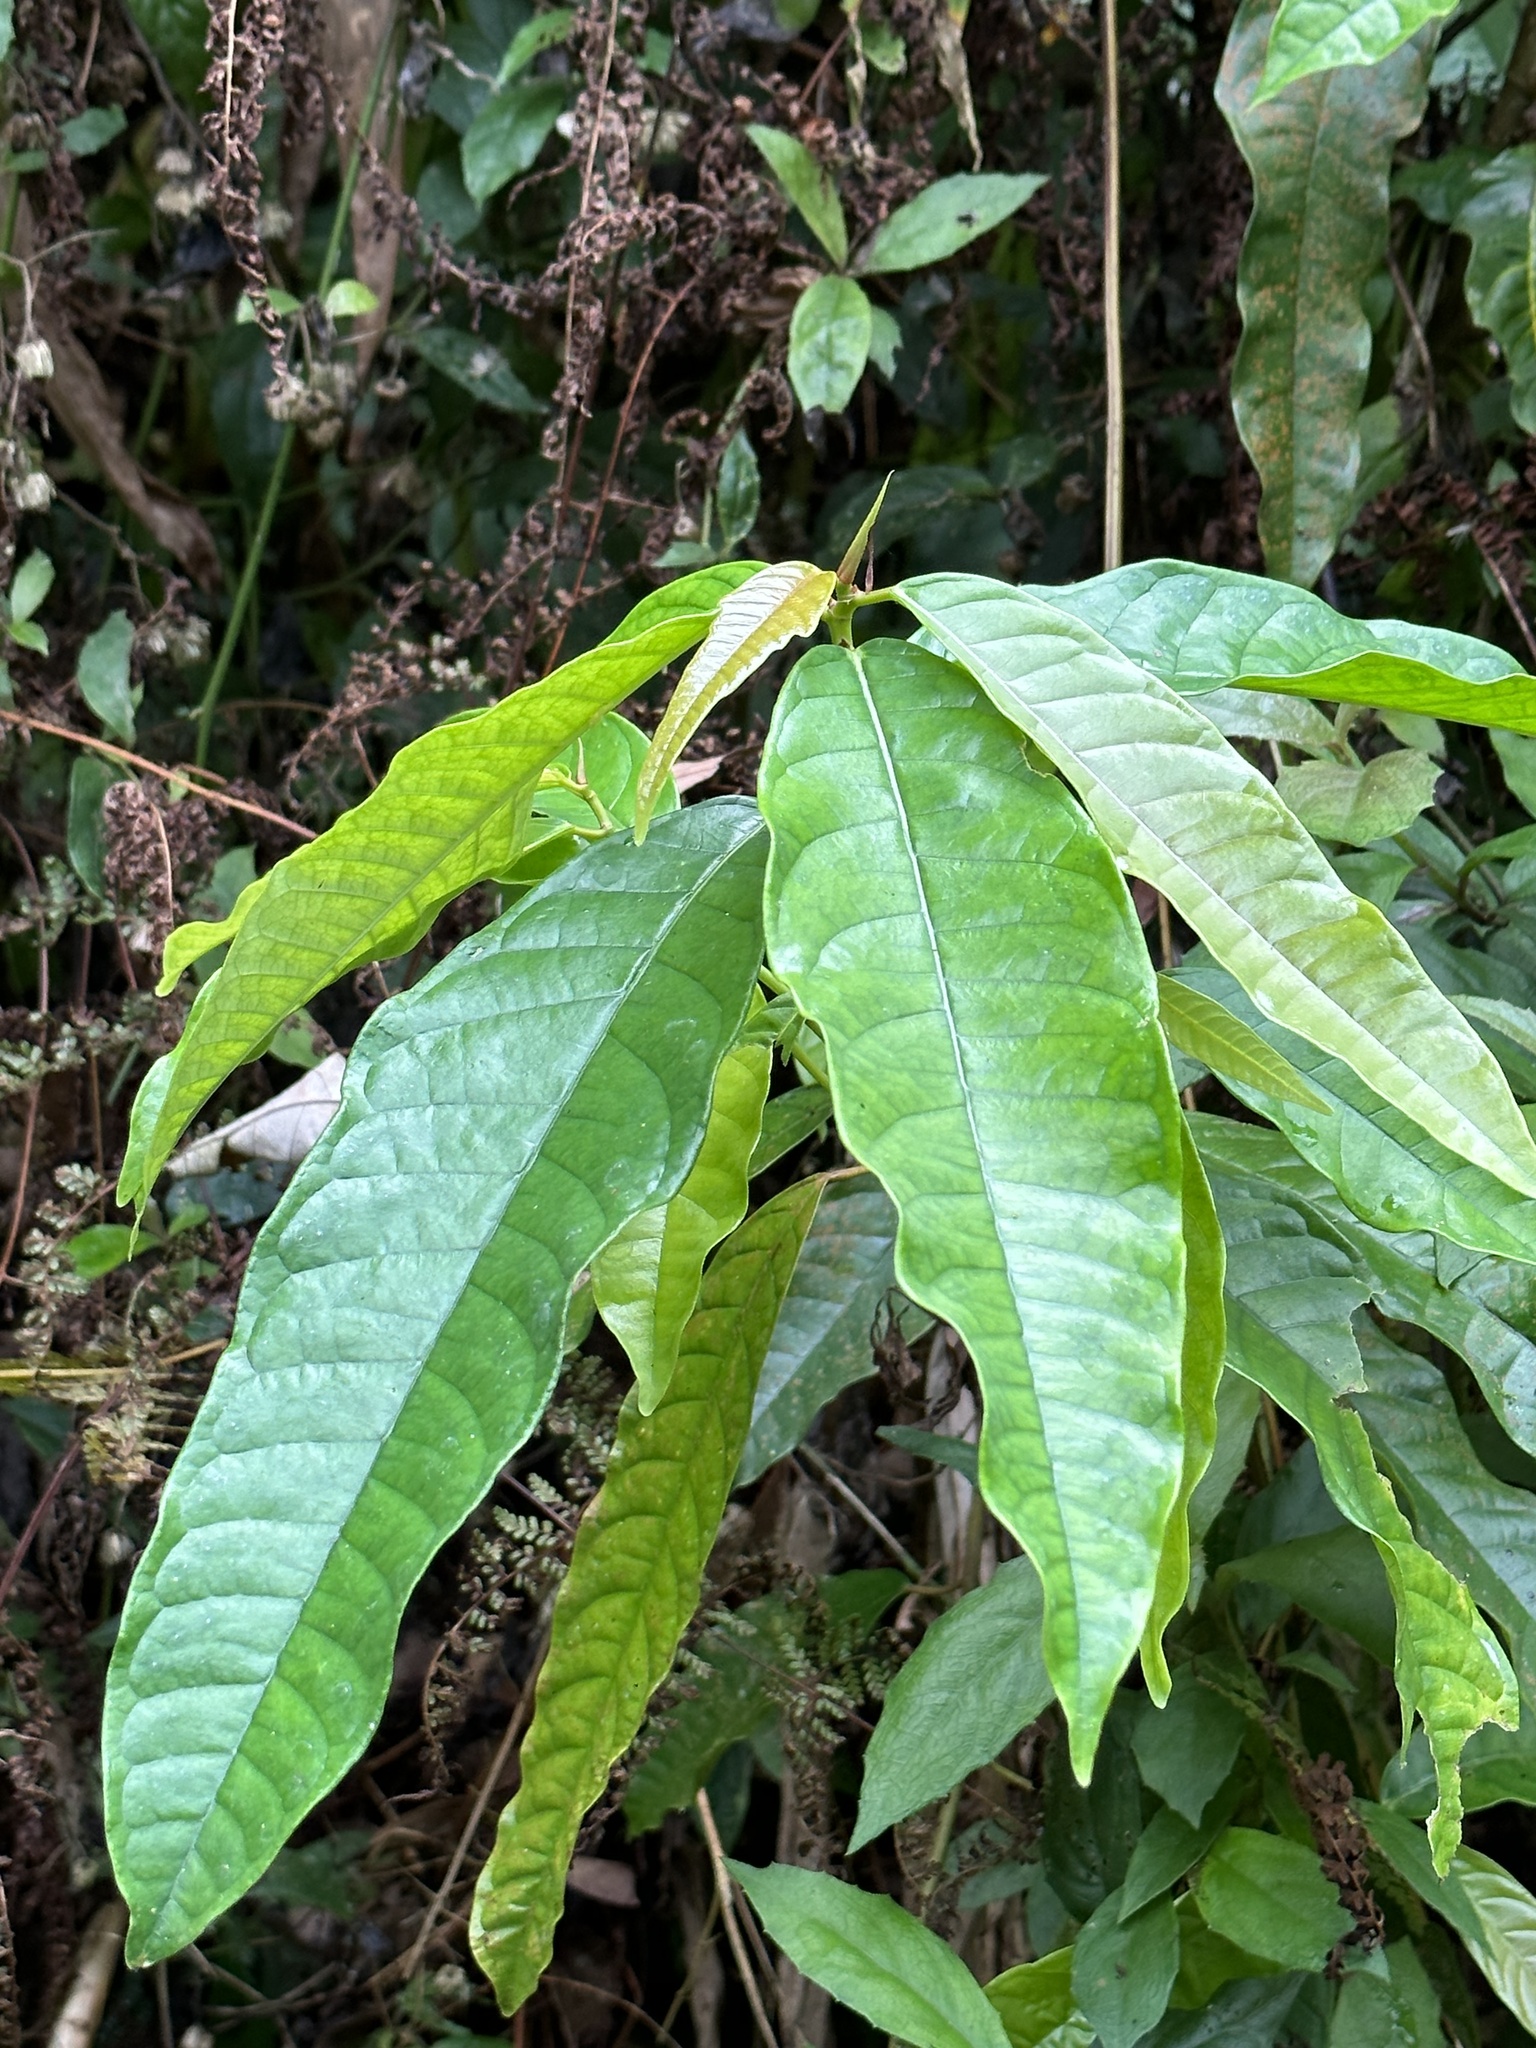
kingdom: Plantae
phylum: Tracheophyta
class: Magnoliopsida
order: Rosales
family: Moraceae
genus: Ficus
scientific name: Ficus nervosa
